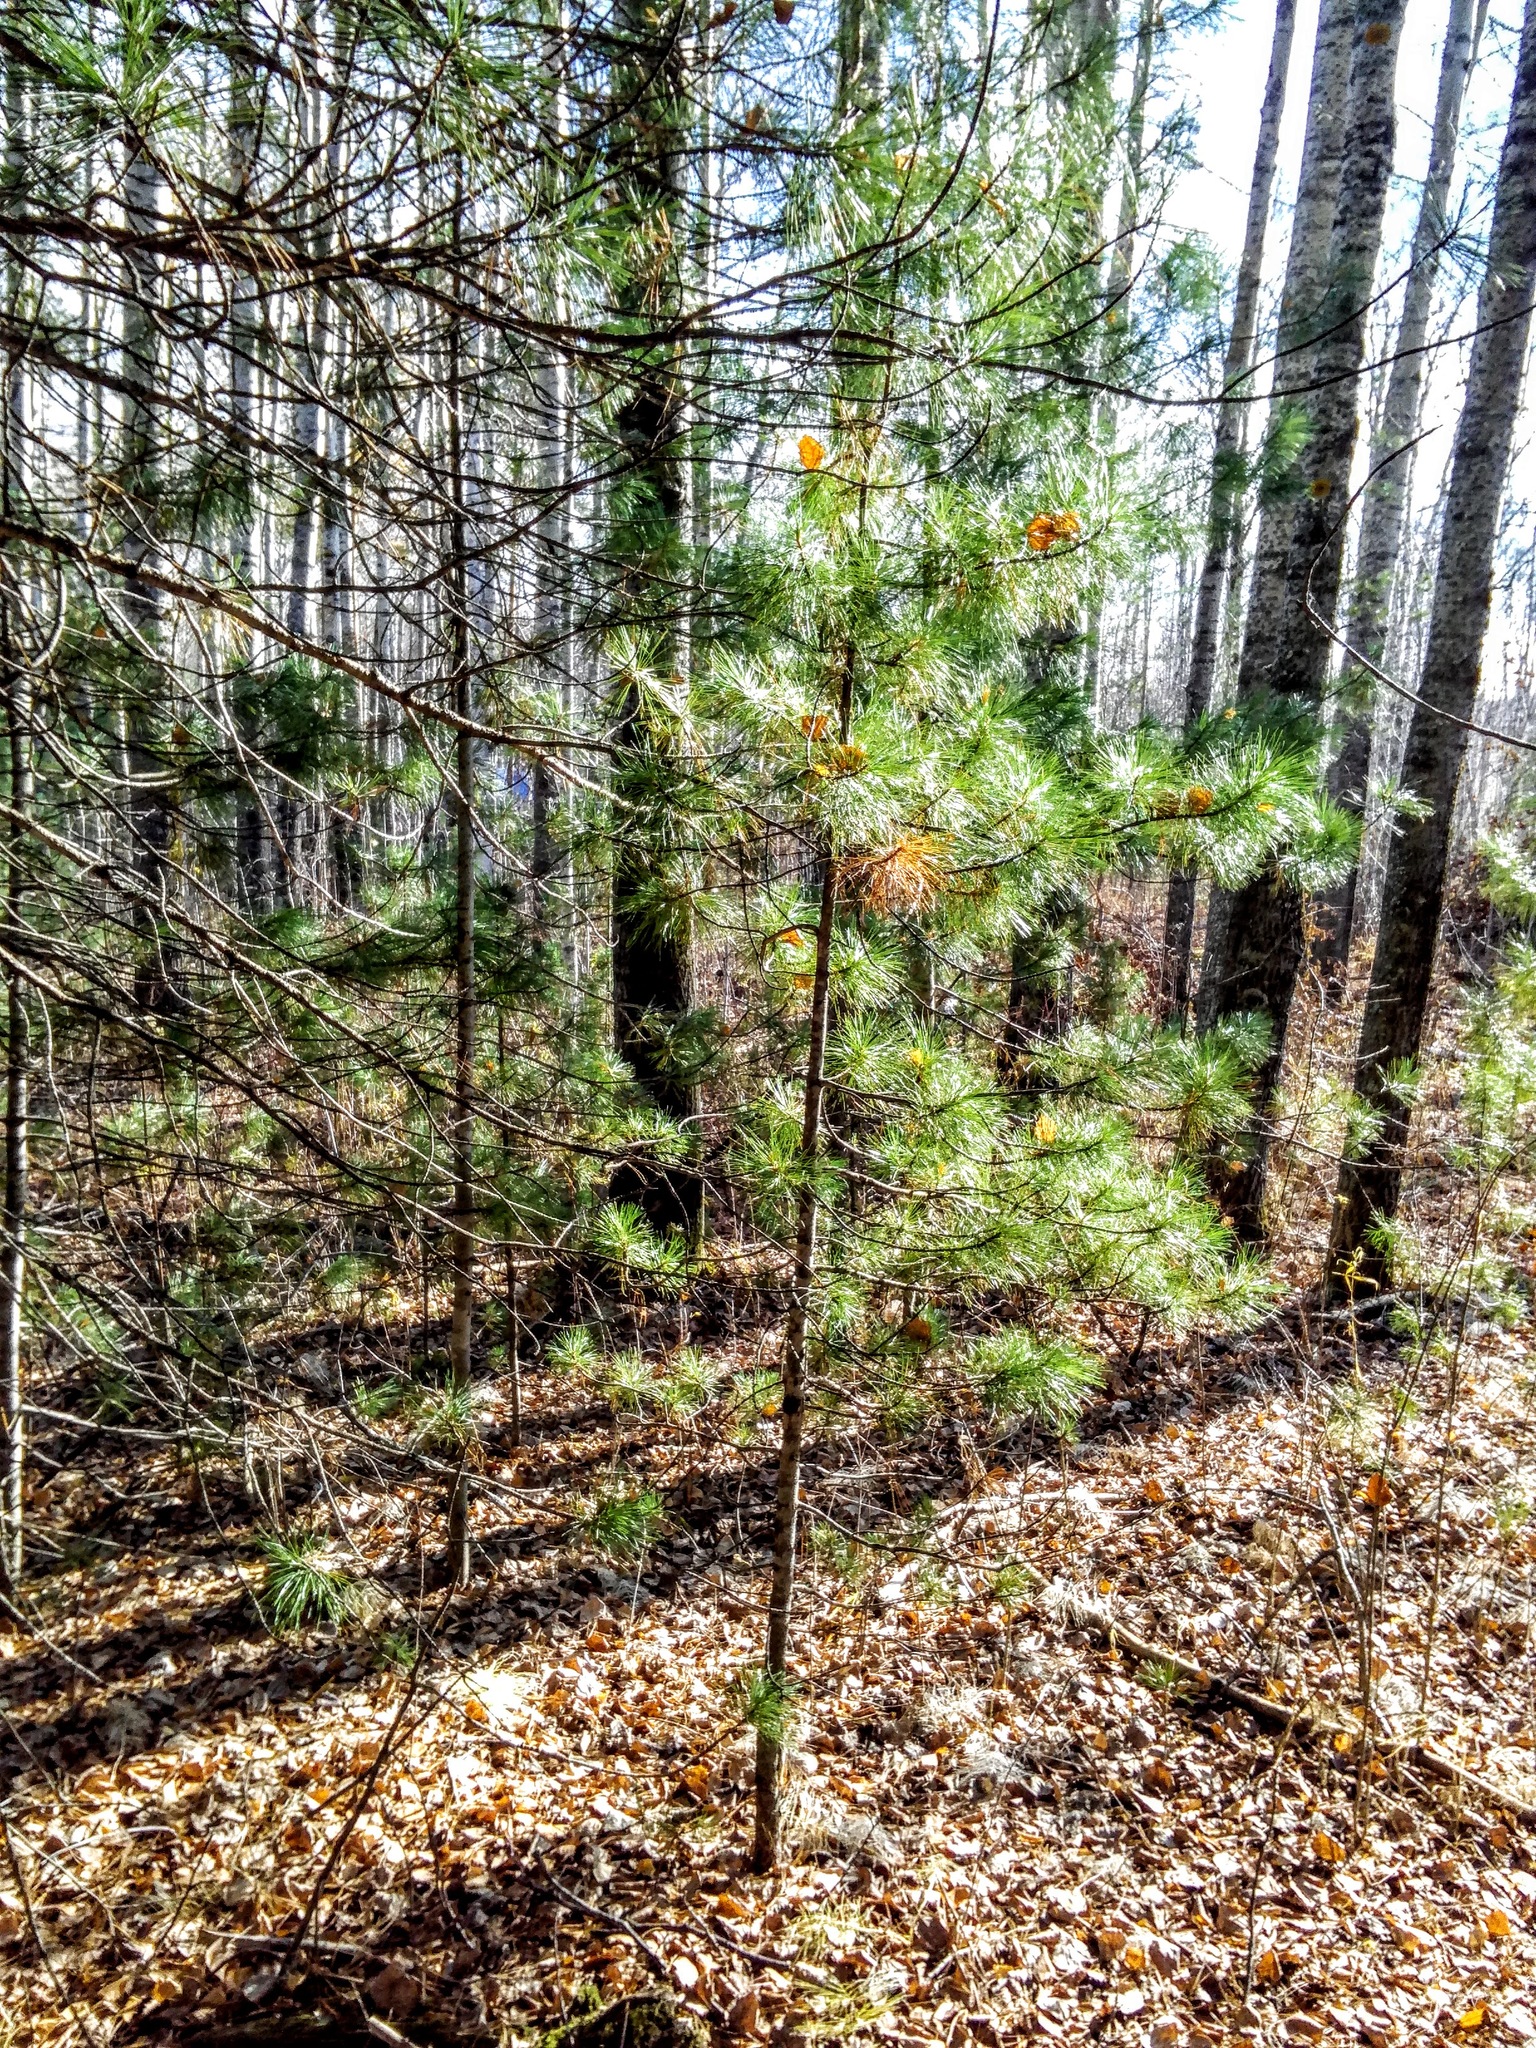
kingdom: Plantae
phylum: Tracheophyta
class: Pinopsida
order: Pinales
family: Pinaceae
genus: Pinus
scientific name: Pinus sibirica
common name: Siberian pine
